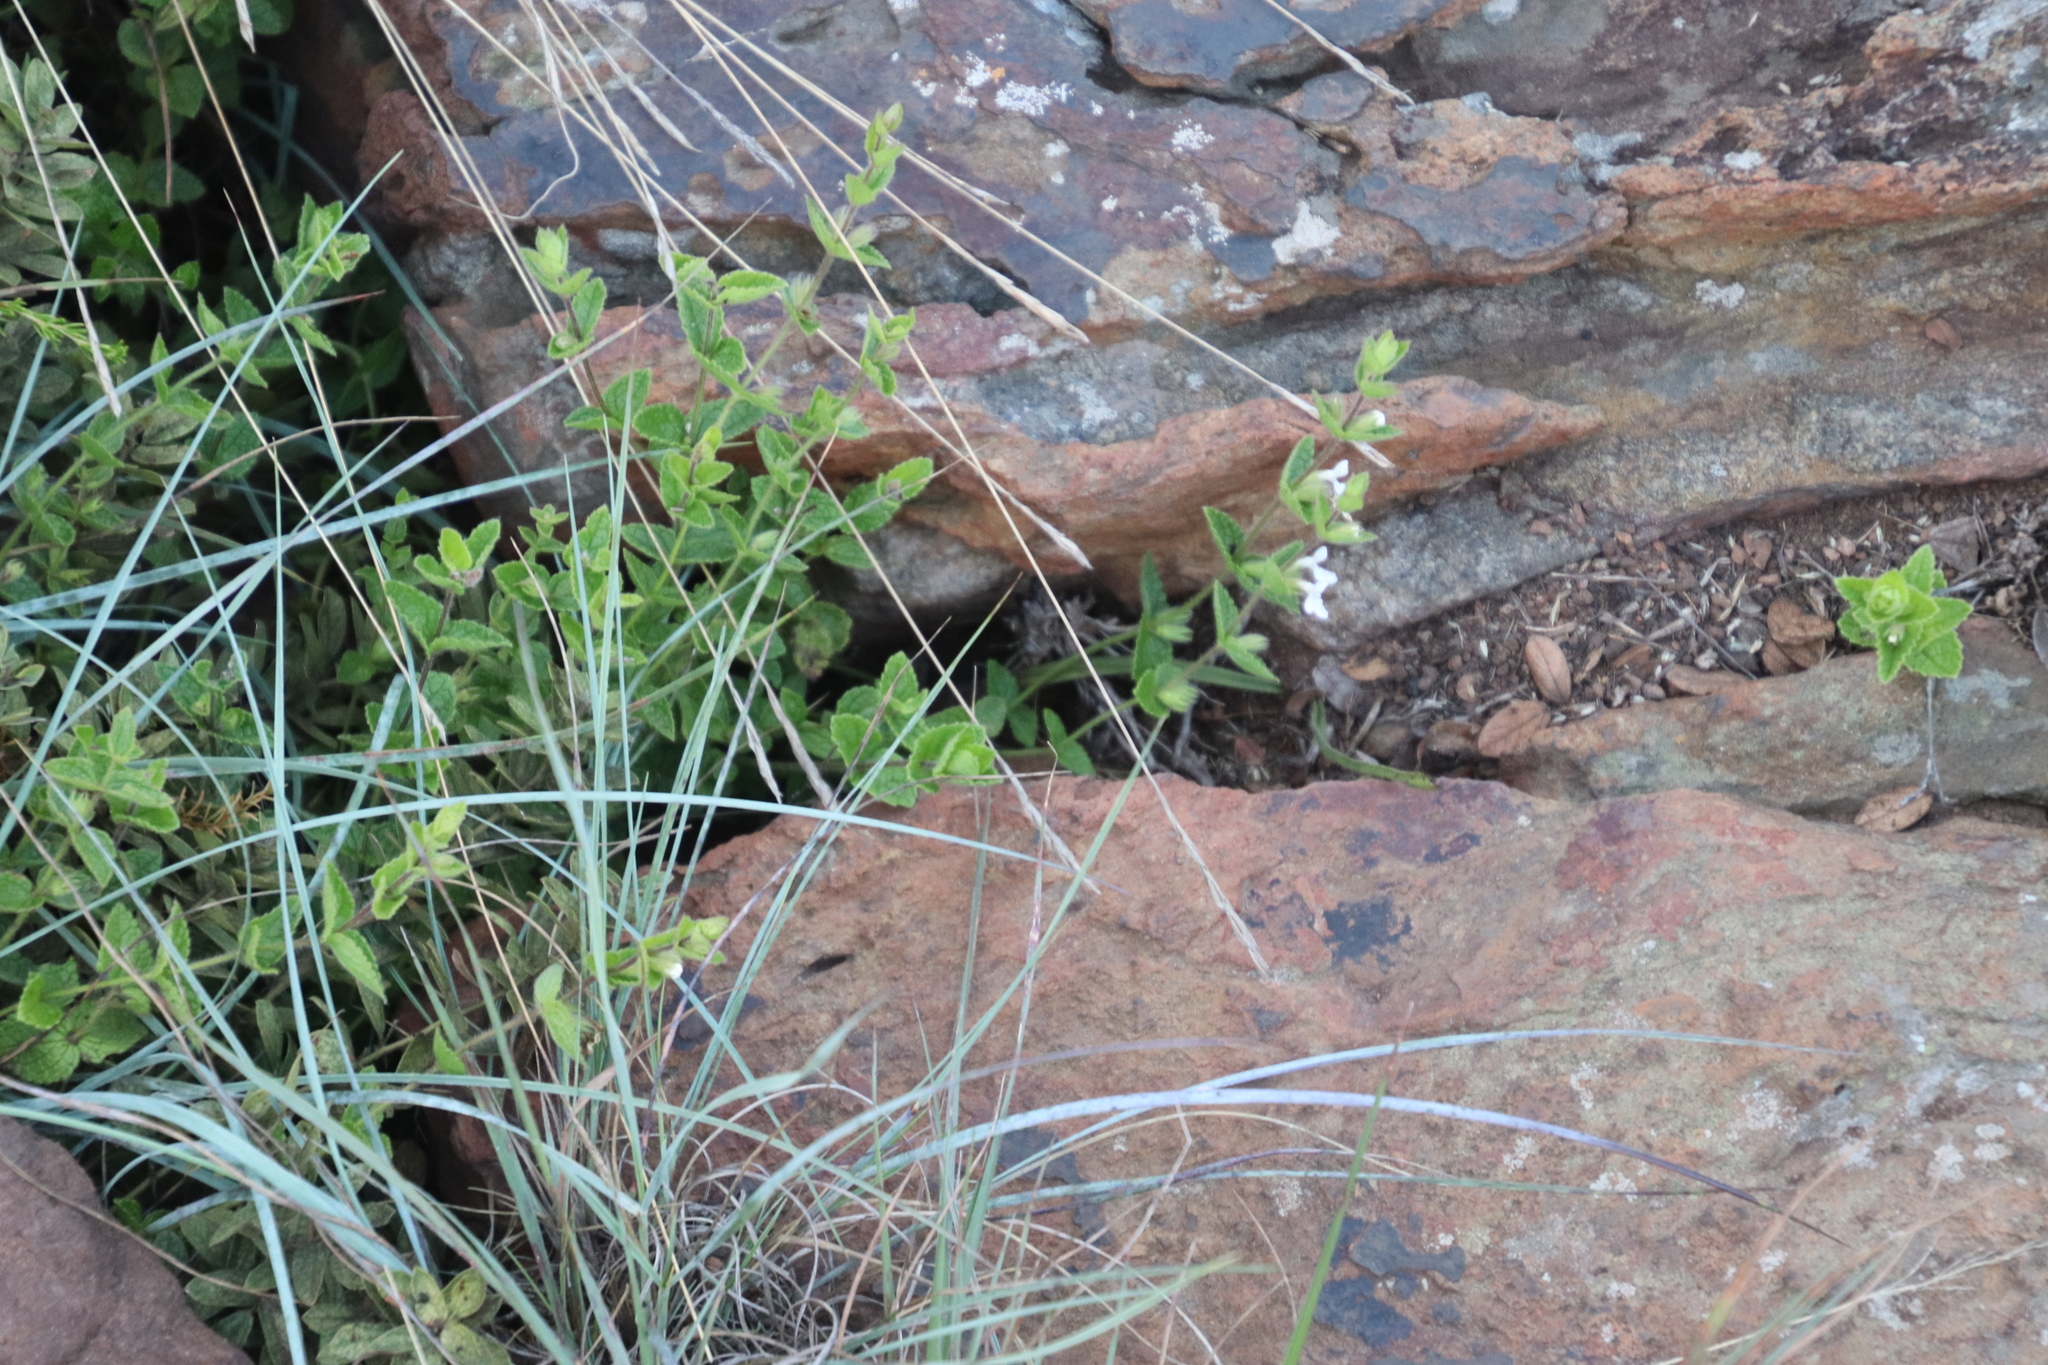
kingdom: Plantae
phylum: Tracheophyta
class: Magnoliopsida
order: Lamiales
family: Lamiaceae
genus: Stachys
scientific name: Stachys natalensis
